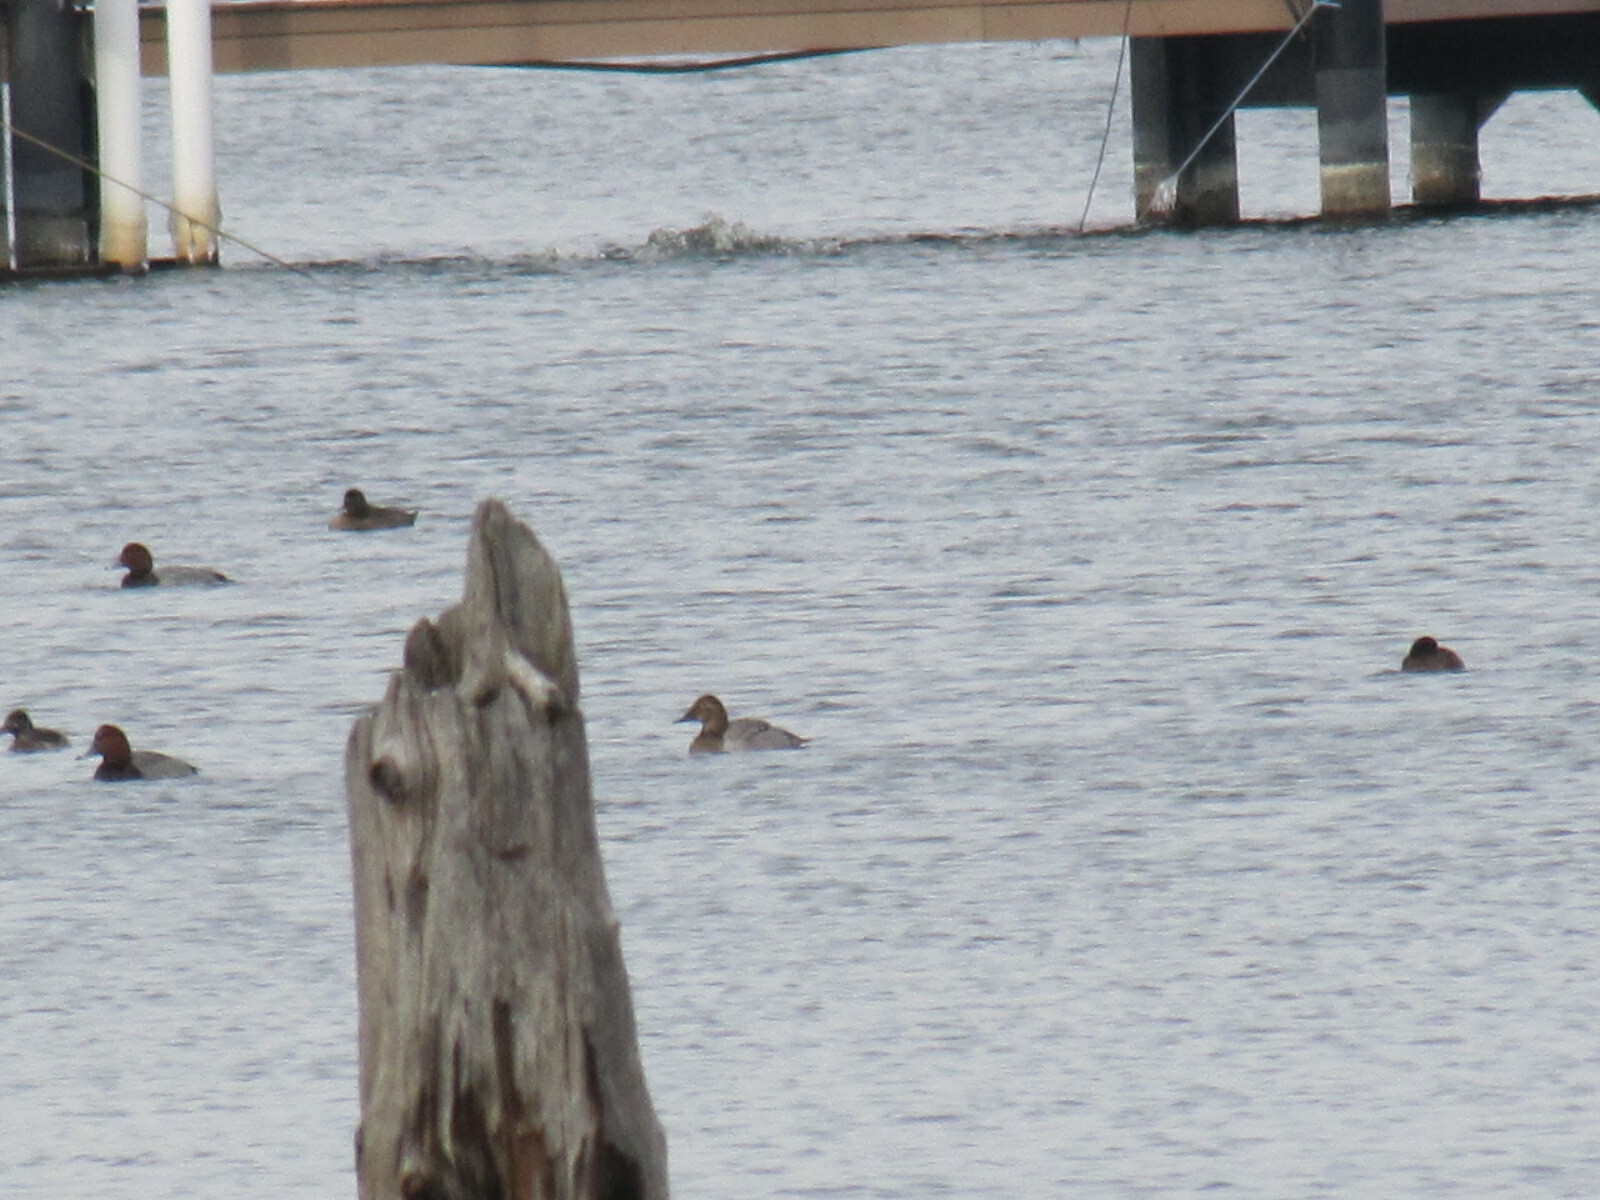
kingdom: Animalia
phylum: Chordata
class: Aves
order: Anseriformes
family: Anatidae
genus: Aythya
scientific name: Aythya valisineria
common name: Canvasback
